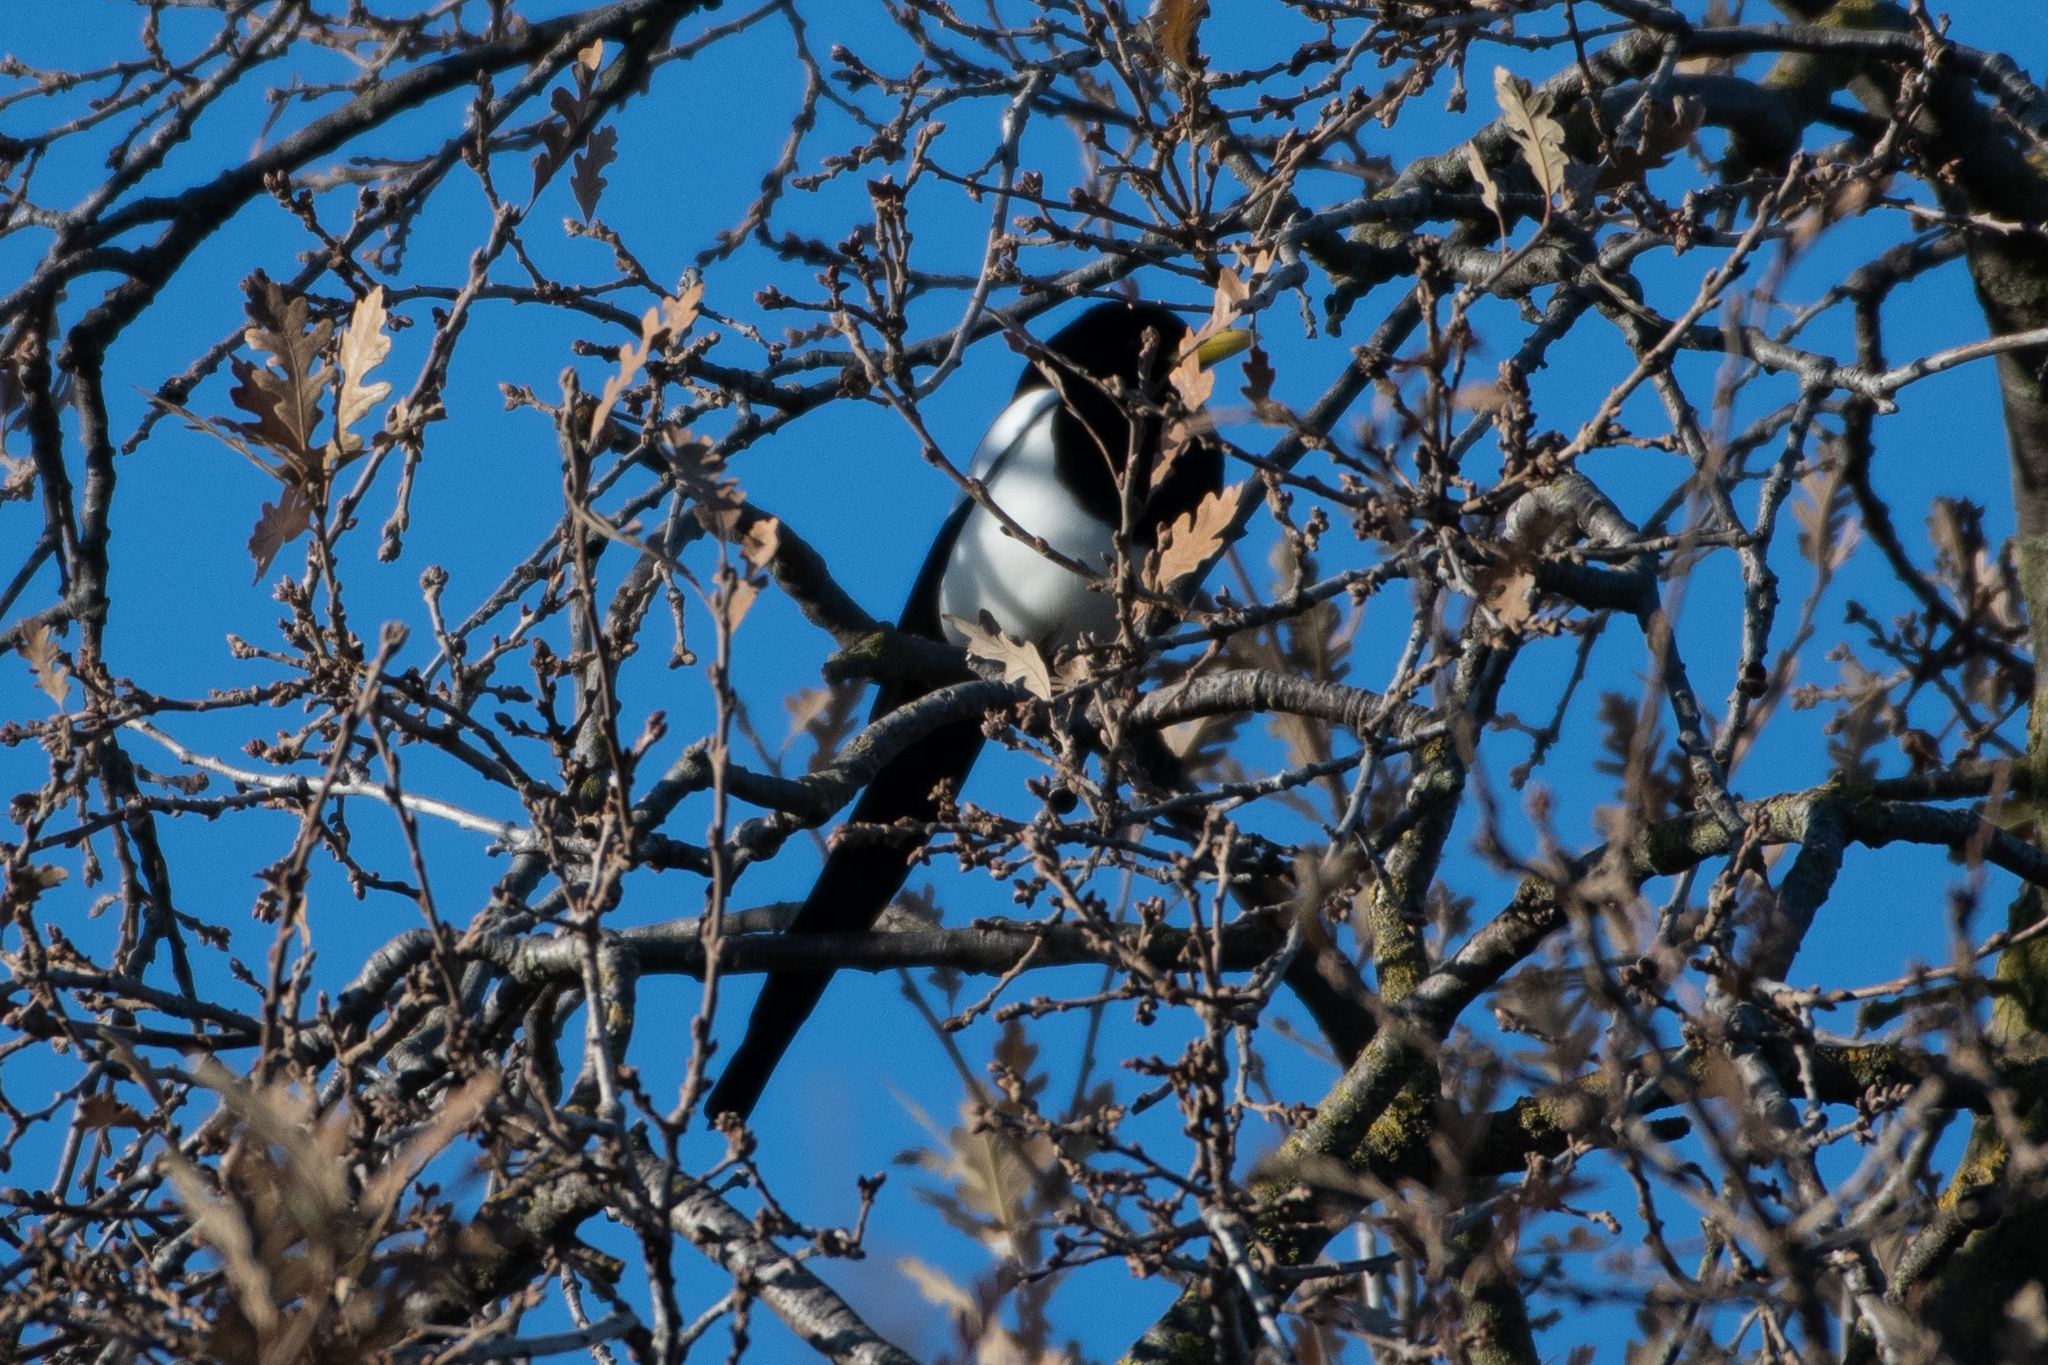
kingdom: Animalia
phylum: Chordata
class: Aves
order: Passeriformes
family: Corvidae
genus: Pica
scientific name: Pica nuttalli
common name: Yellow-billed magpie
